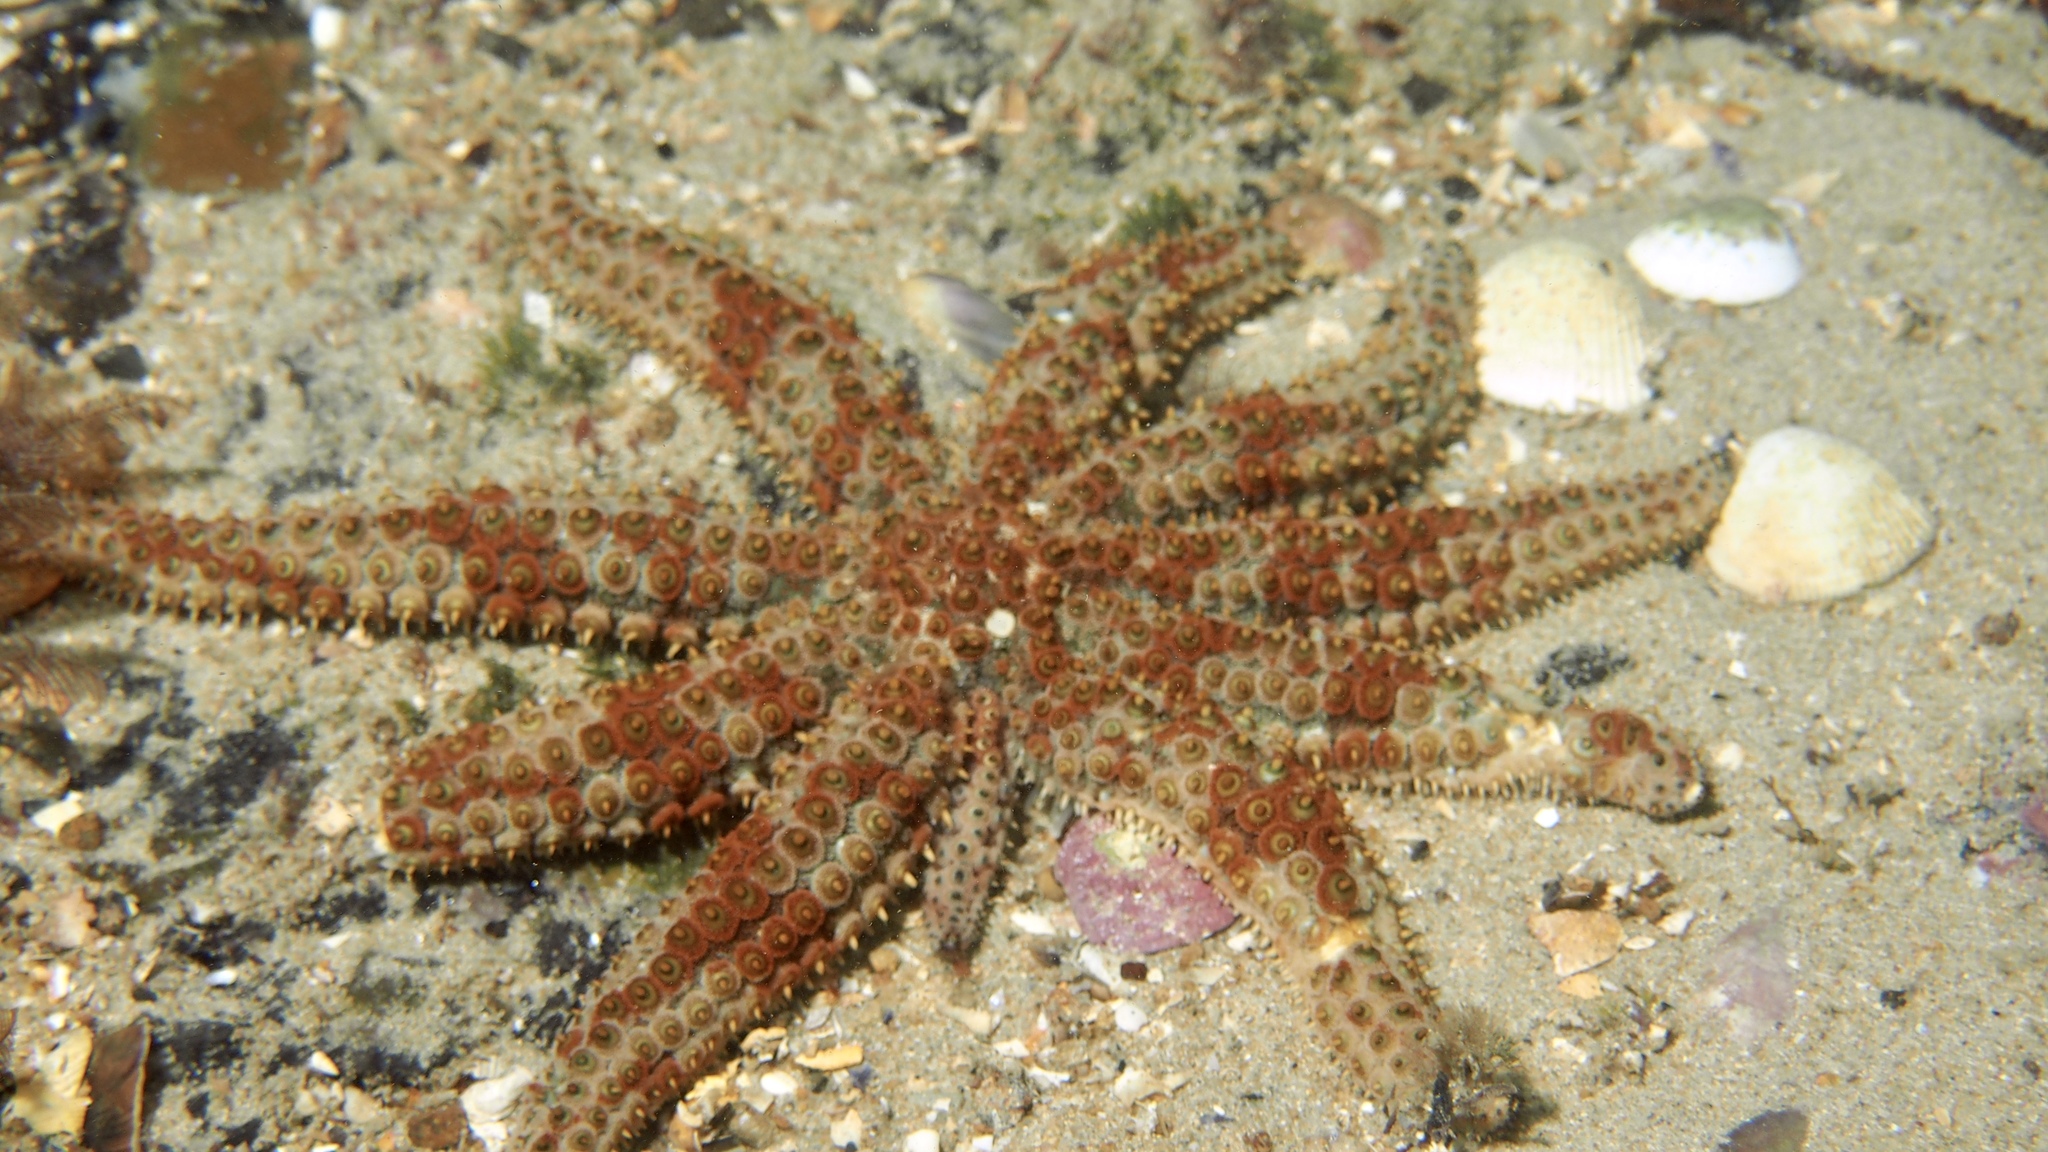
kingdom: Animalia
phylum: Echinodermata
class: Asteroidea
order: Forcipulatida
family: Asteriidae
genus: Coscinasterias
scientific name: Coscinasterias muricata
